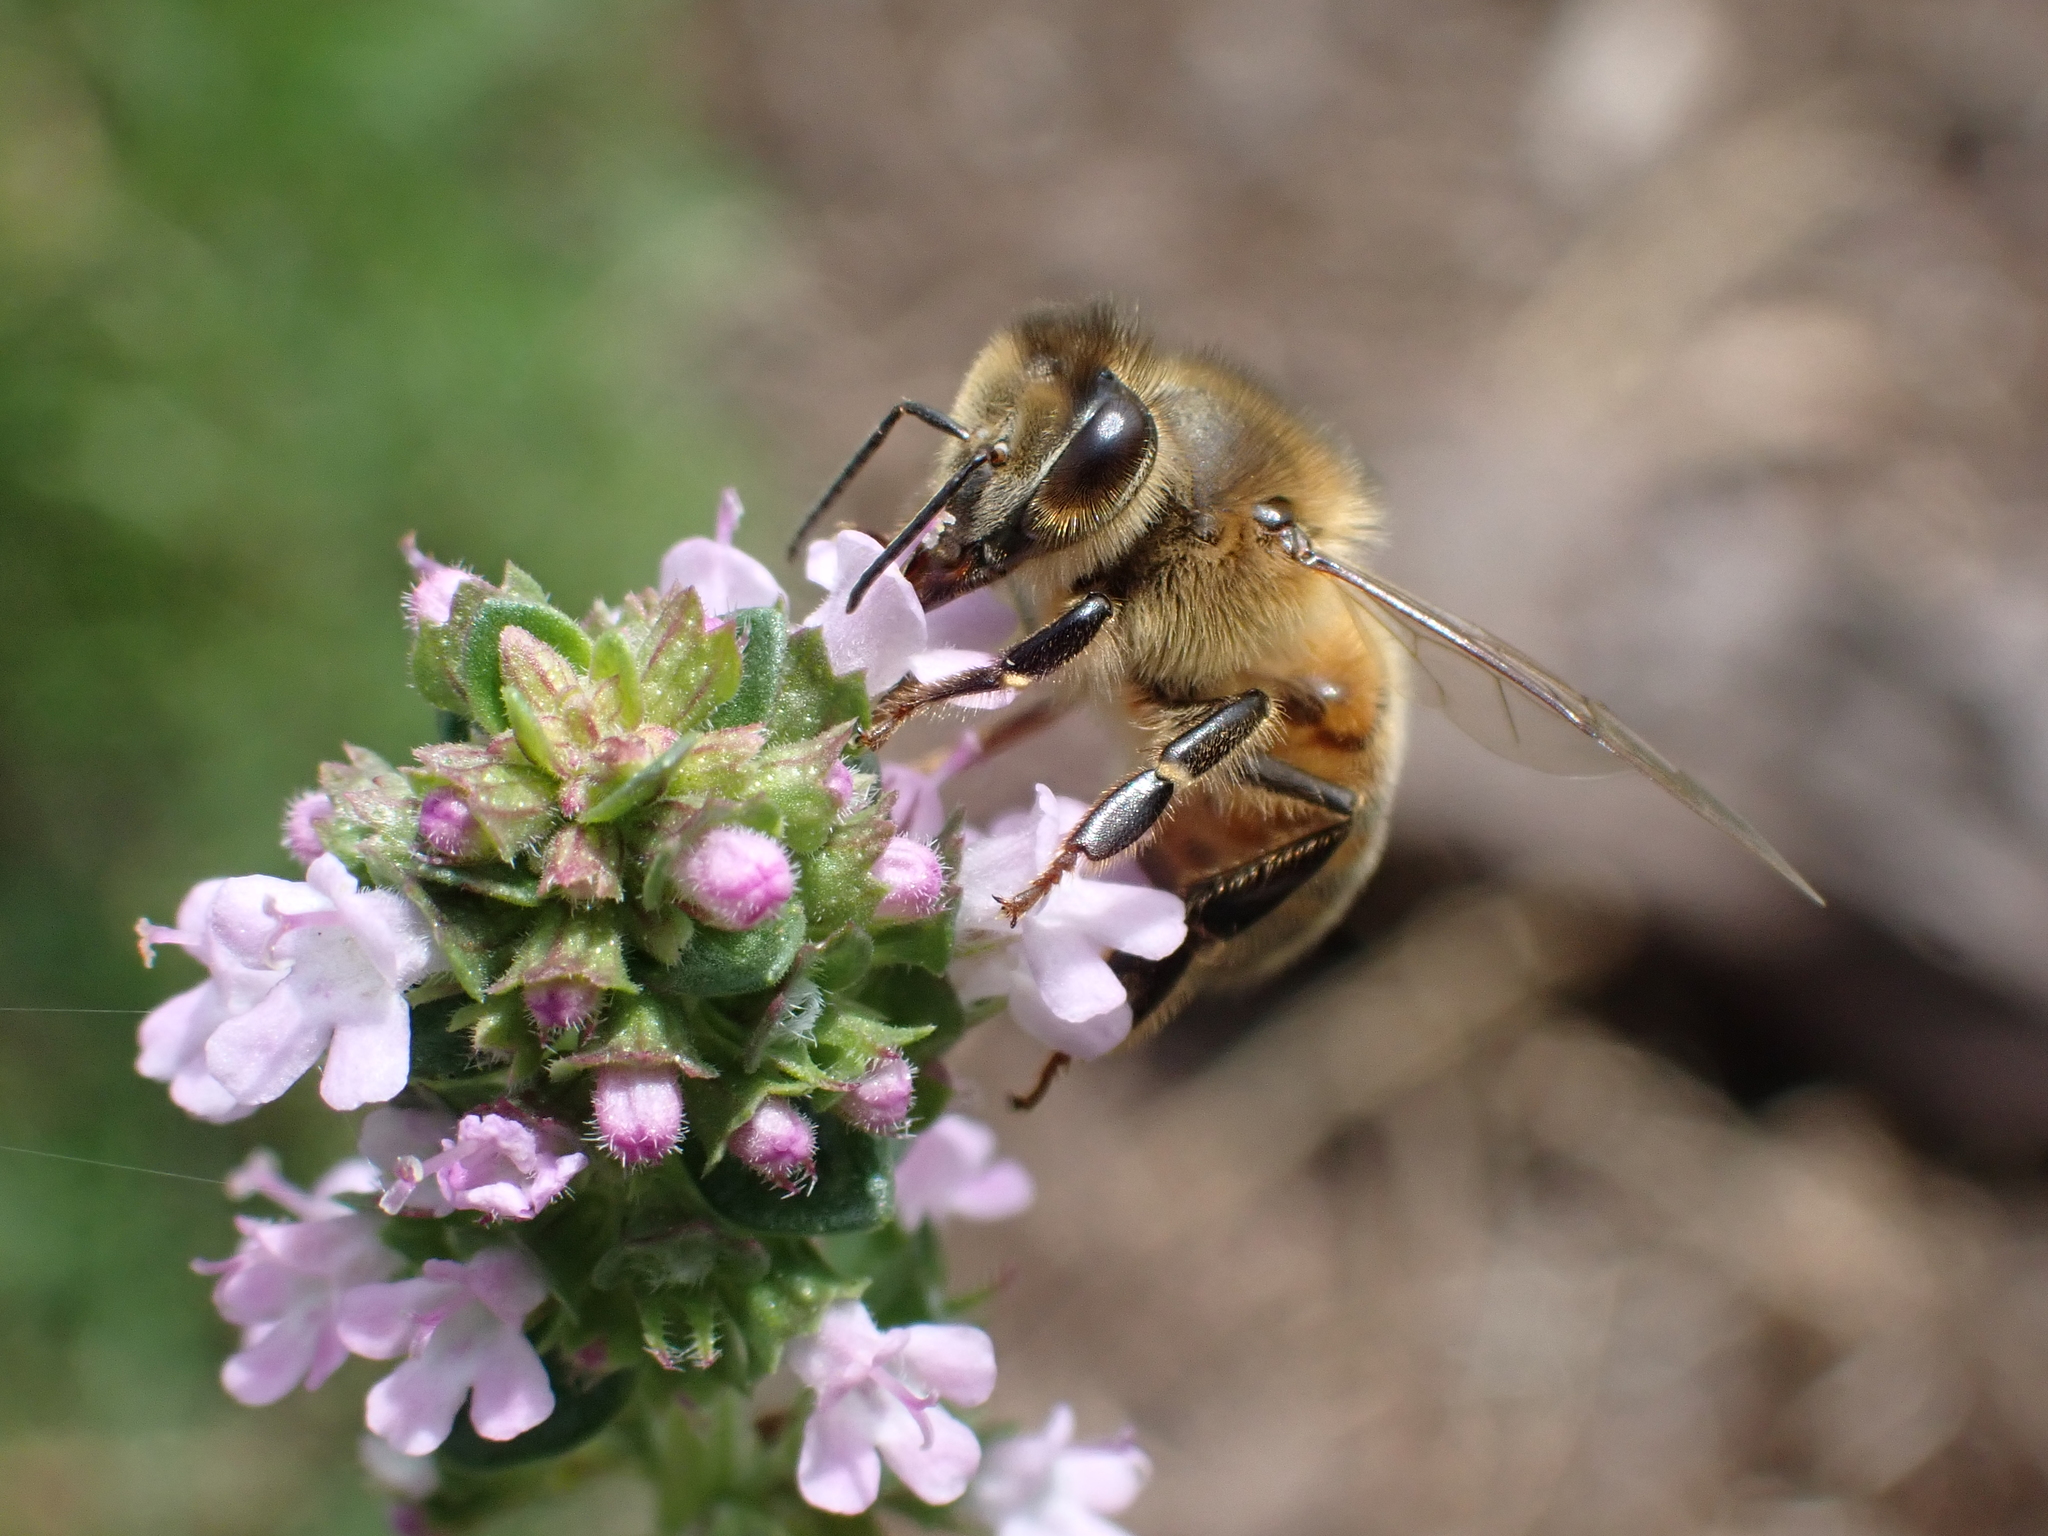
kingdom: Animalia
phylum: Arthropoda
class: Insecta
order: Hymenoptera
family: Apidae
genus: Apis
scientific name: Apis mellifera
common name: Honey bee
